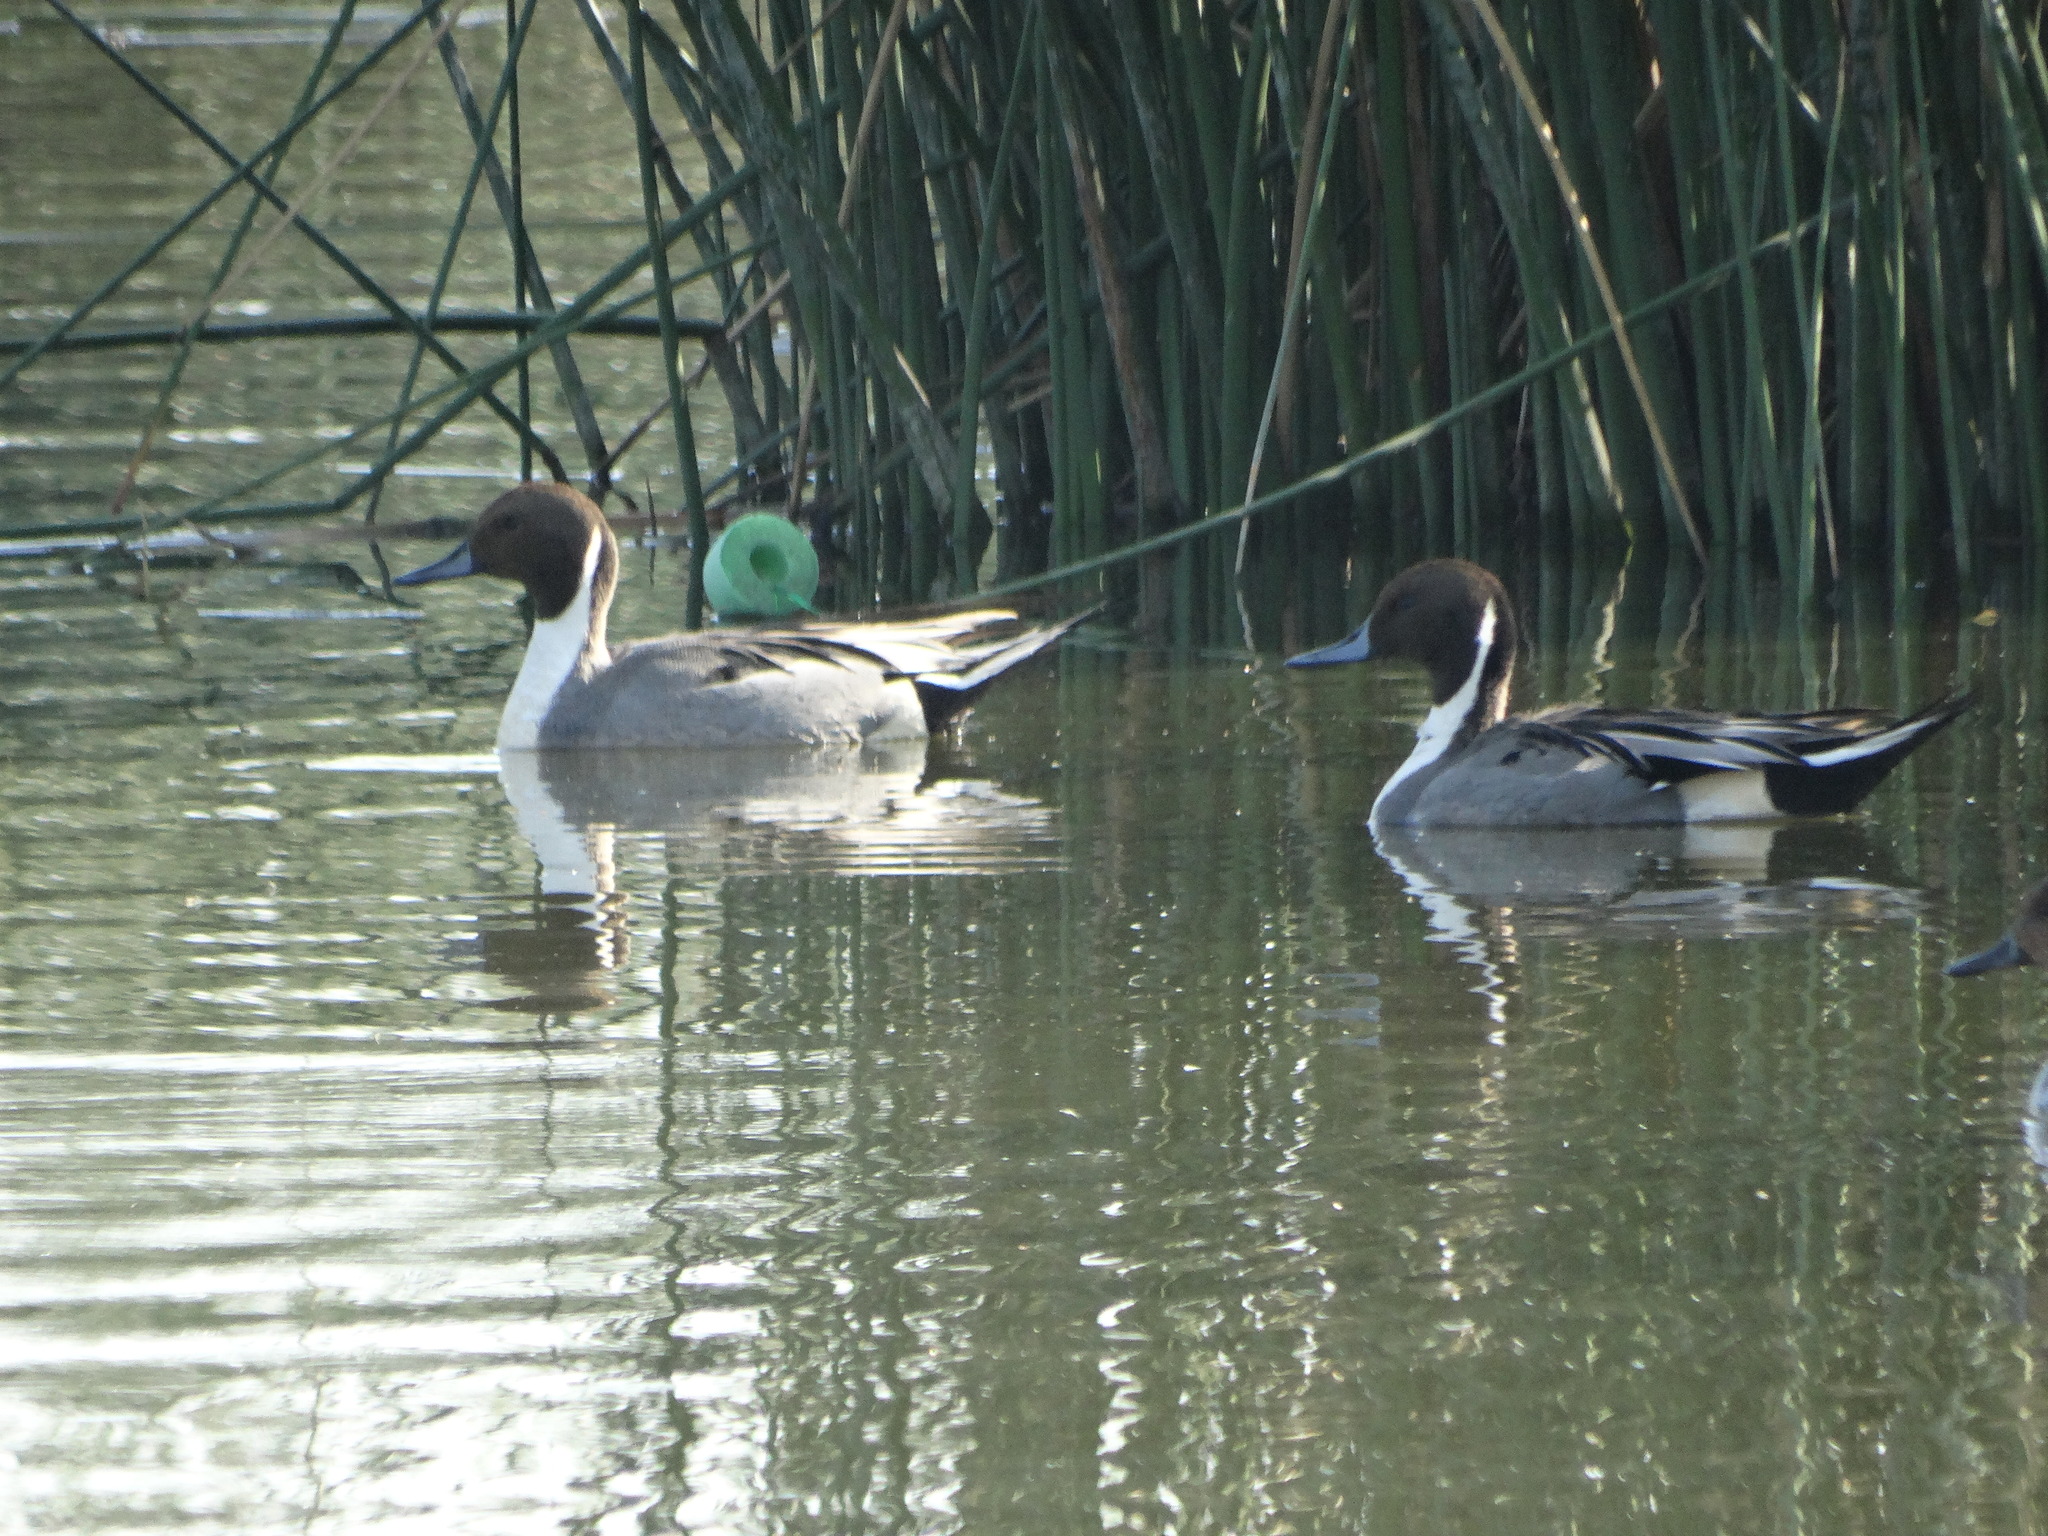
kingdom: Animalia
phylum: Chordata
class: Aves
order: Anseriformes
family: Anatidae
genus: Anas
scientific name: Anas acuta
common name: Northern pintail
